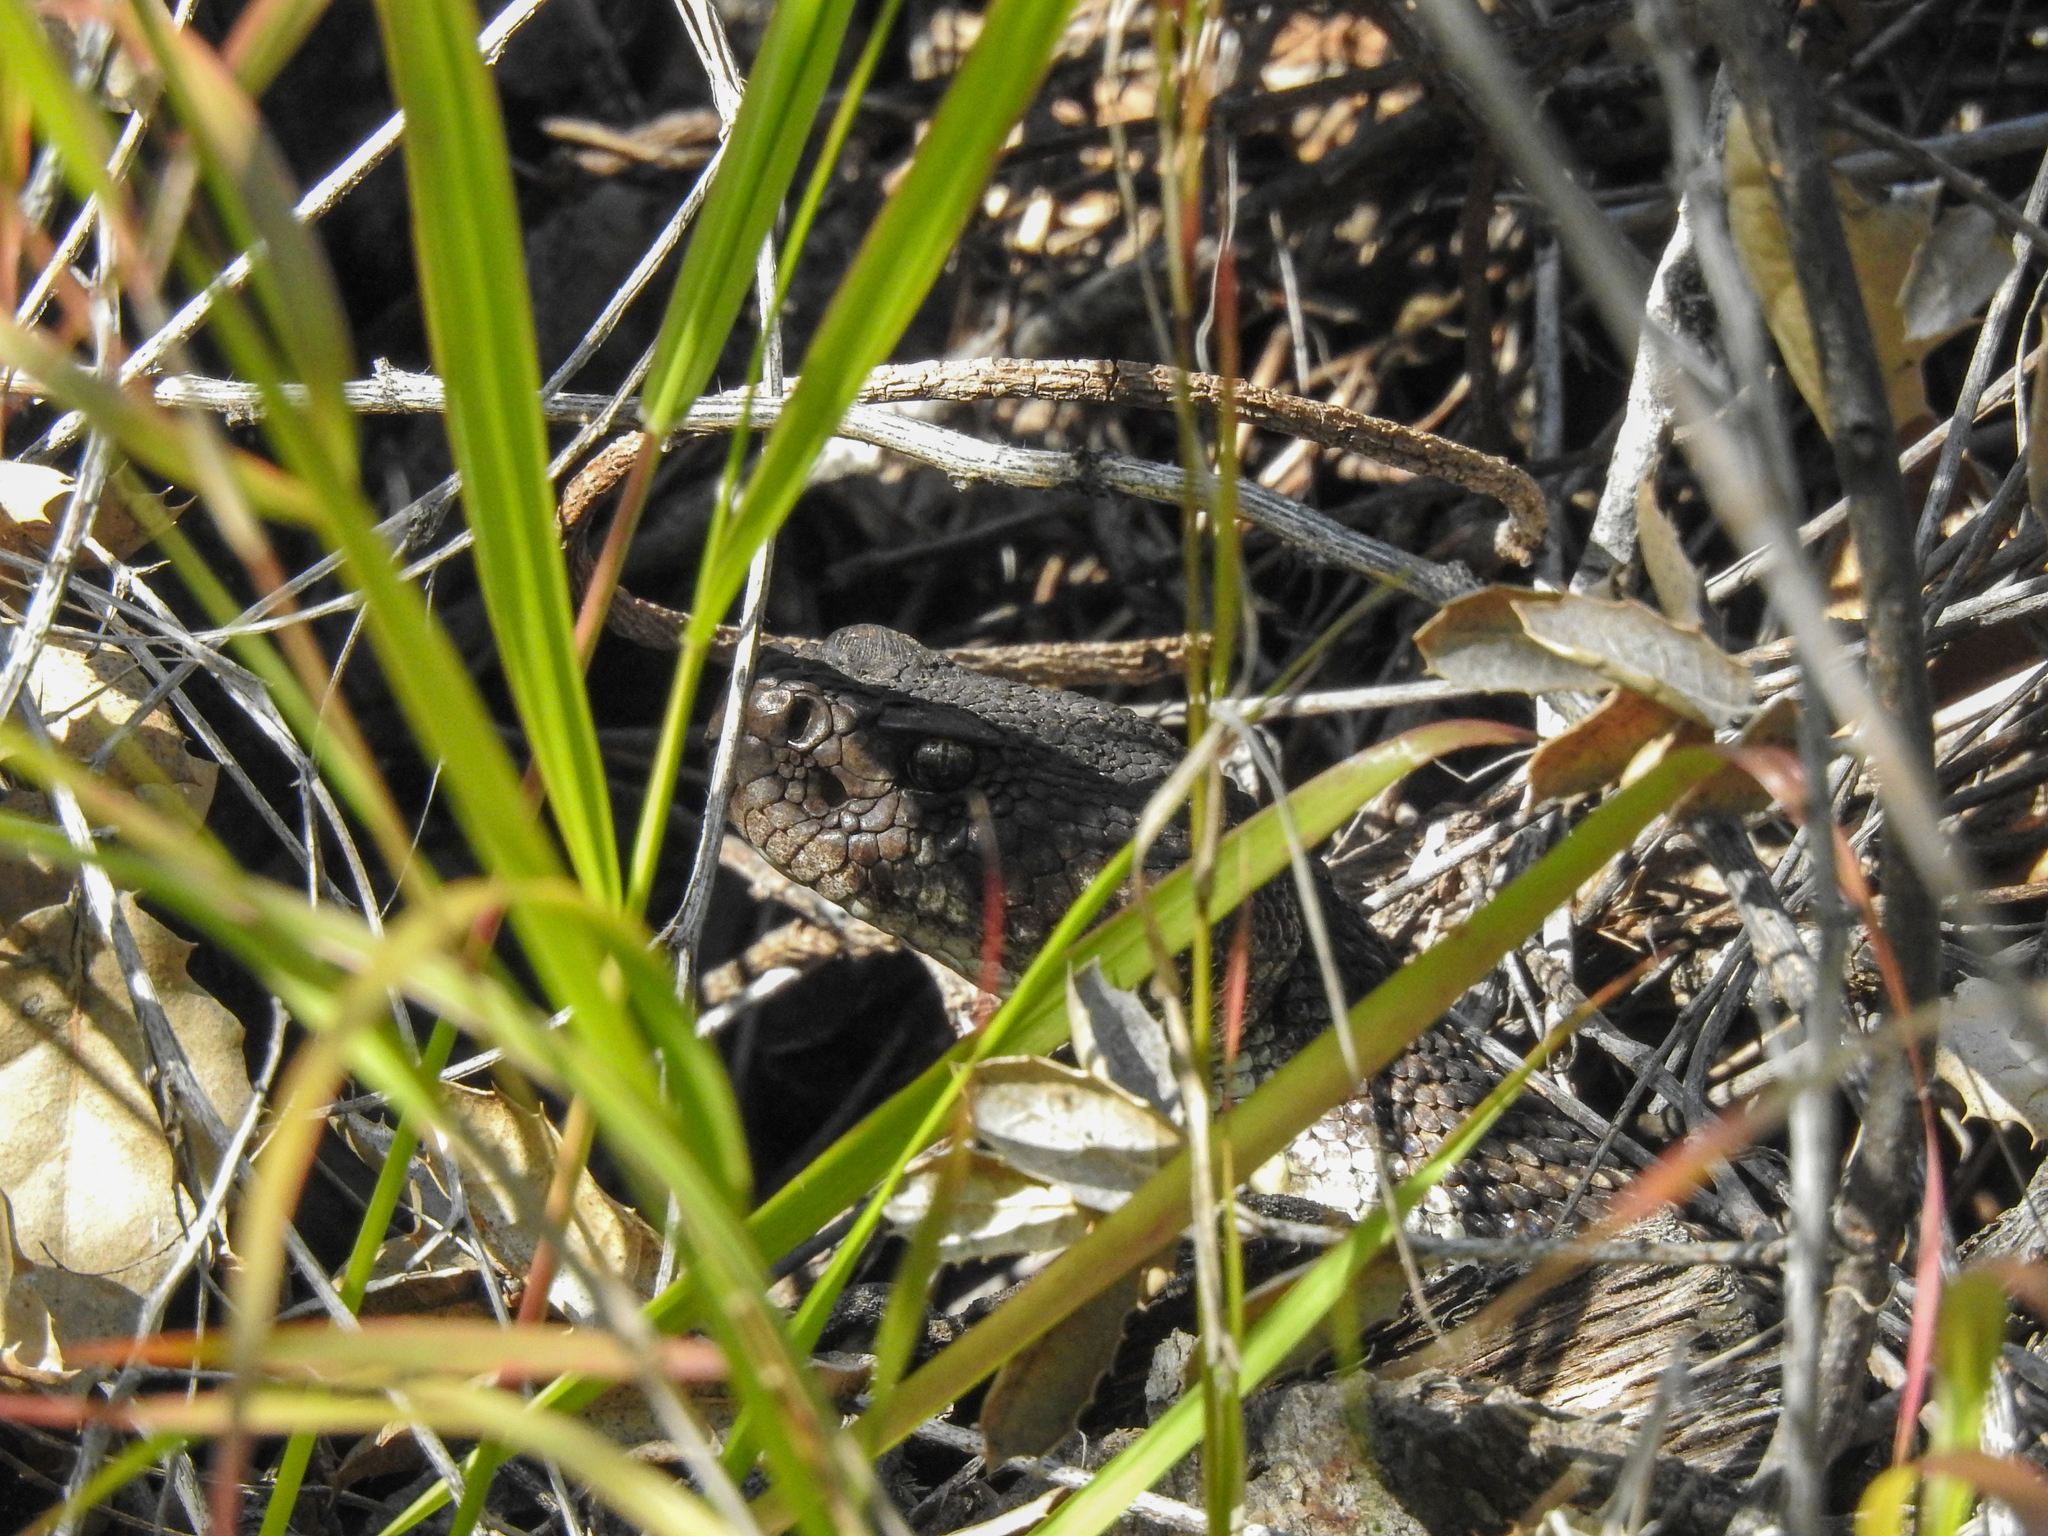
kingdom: Animalia
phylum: Chordata
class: Squamata
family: Viperidae
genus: Crotalus
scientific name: Crotalus oreganus
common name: Abyssus
